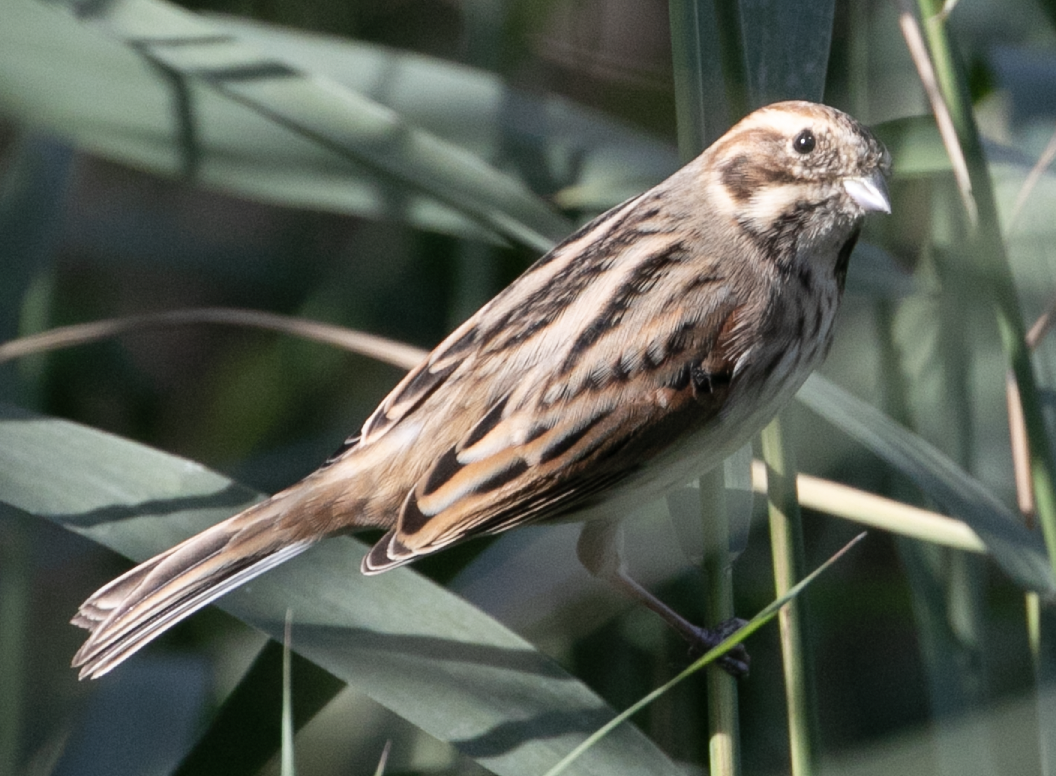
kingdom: Animalia
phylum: Chordata
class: Aves
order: Passeriformes
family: Emberizidae
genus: Emberiza
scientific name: Emberiza schoeniclus
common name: Reed bunting
